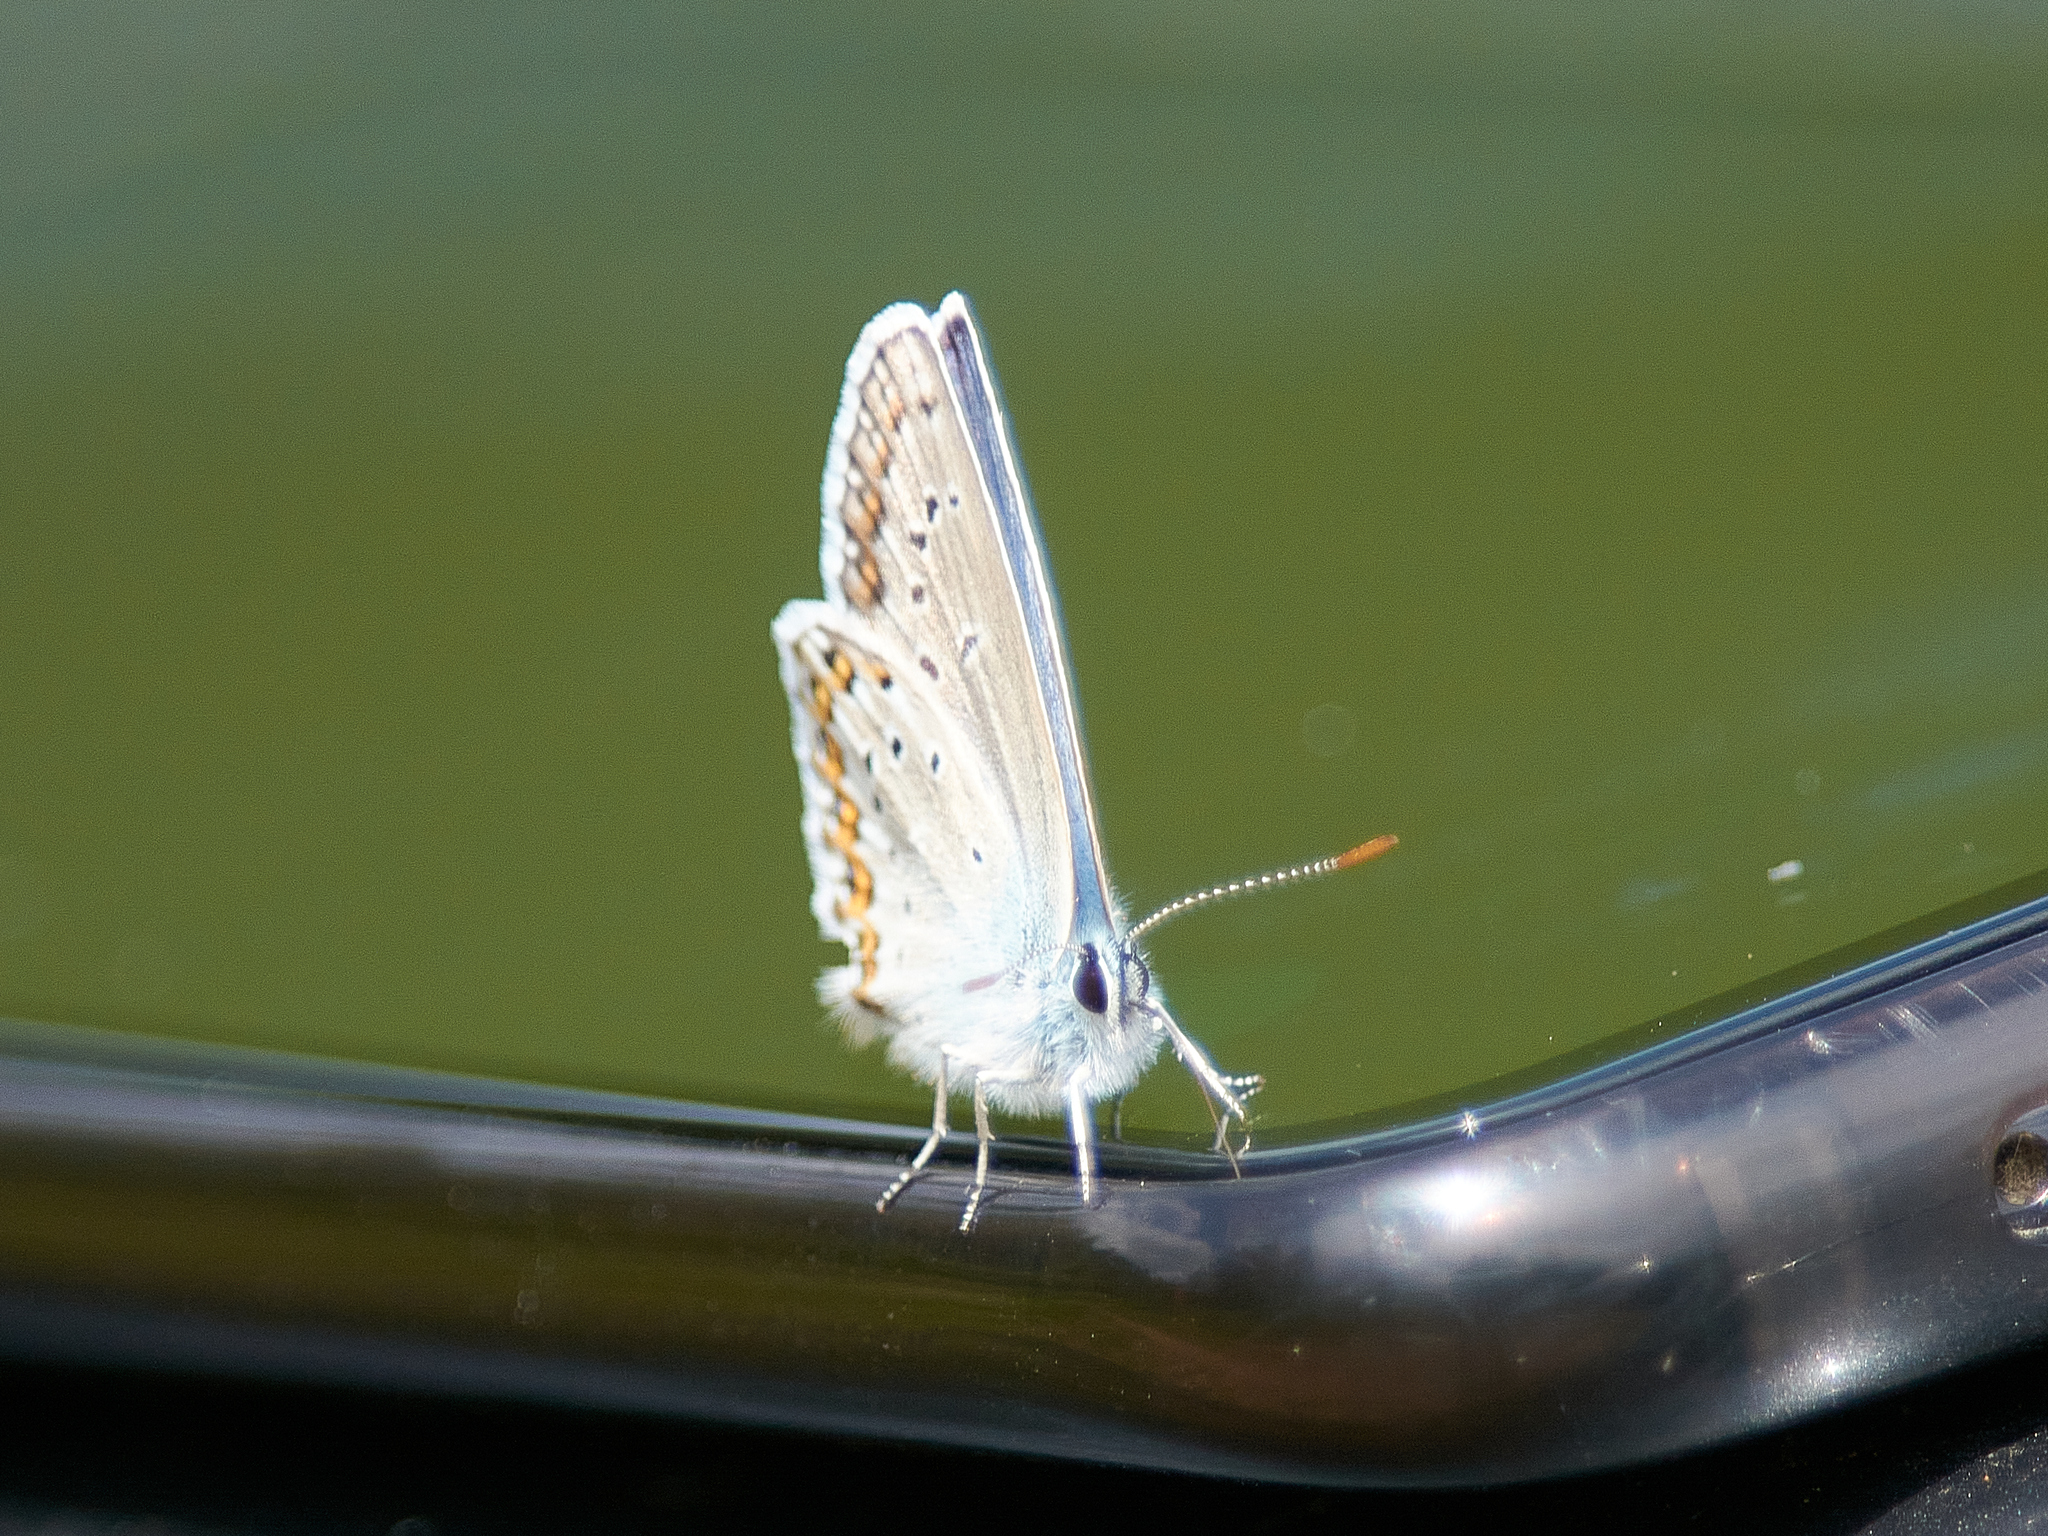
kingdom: Animalia
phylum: Arthropoda
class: Insecta
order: Lepidoptera
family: Lycaenidae
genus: Plebejus
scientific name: Plebejus argyrognomon
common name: Reverdin's blue
